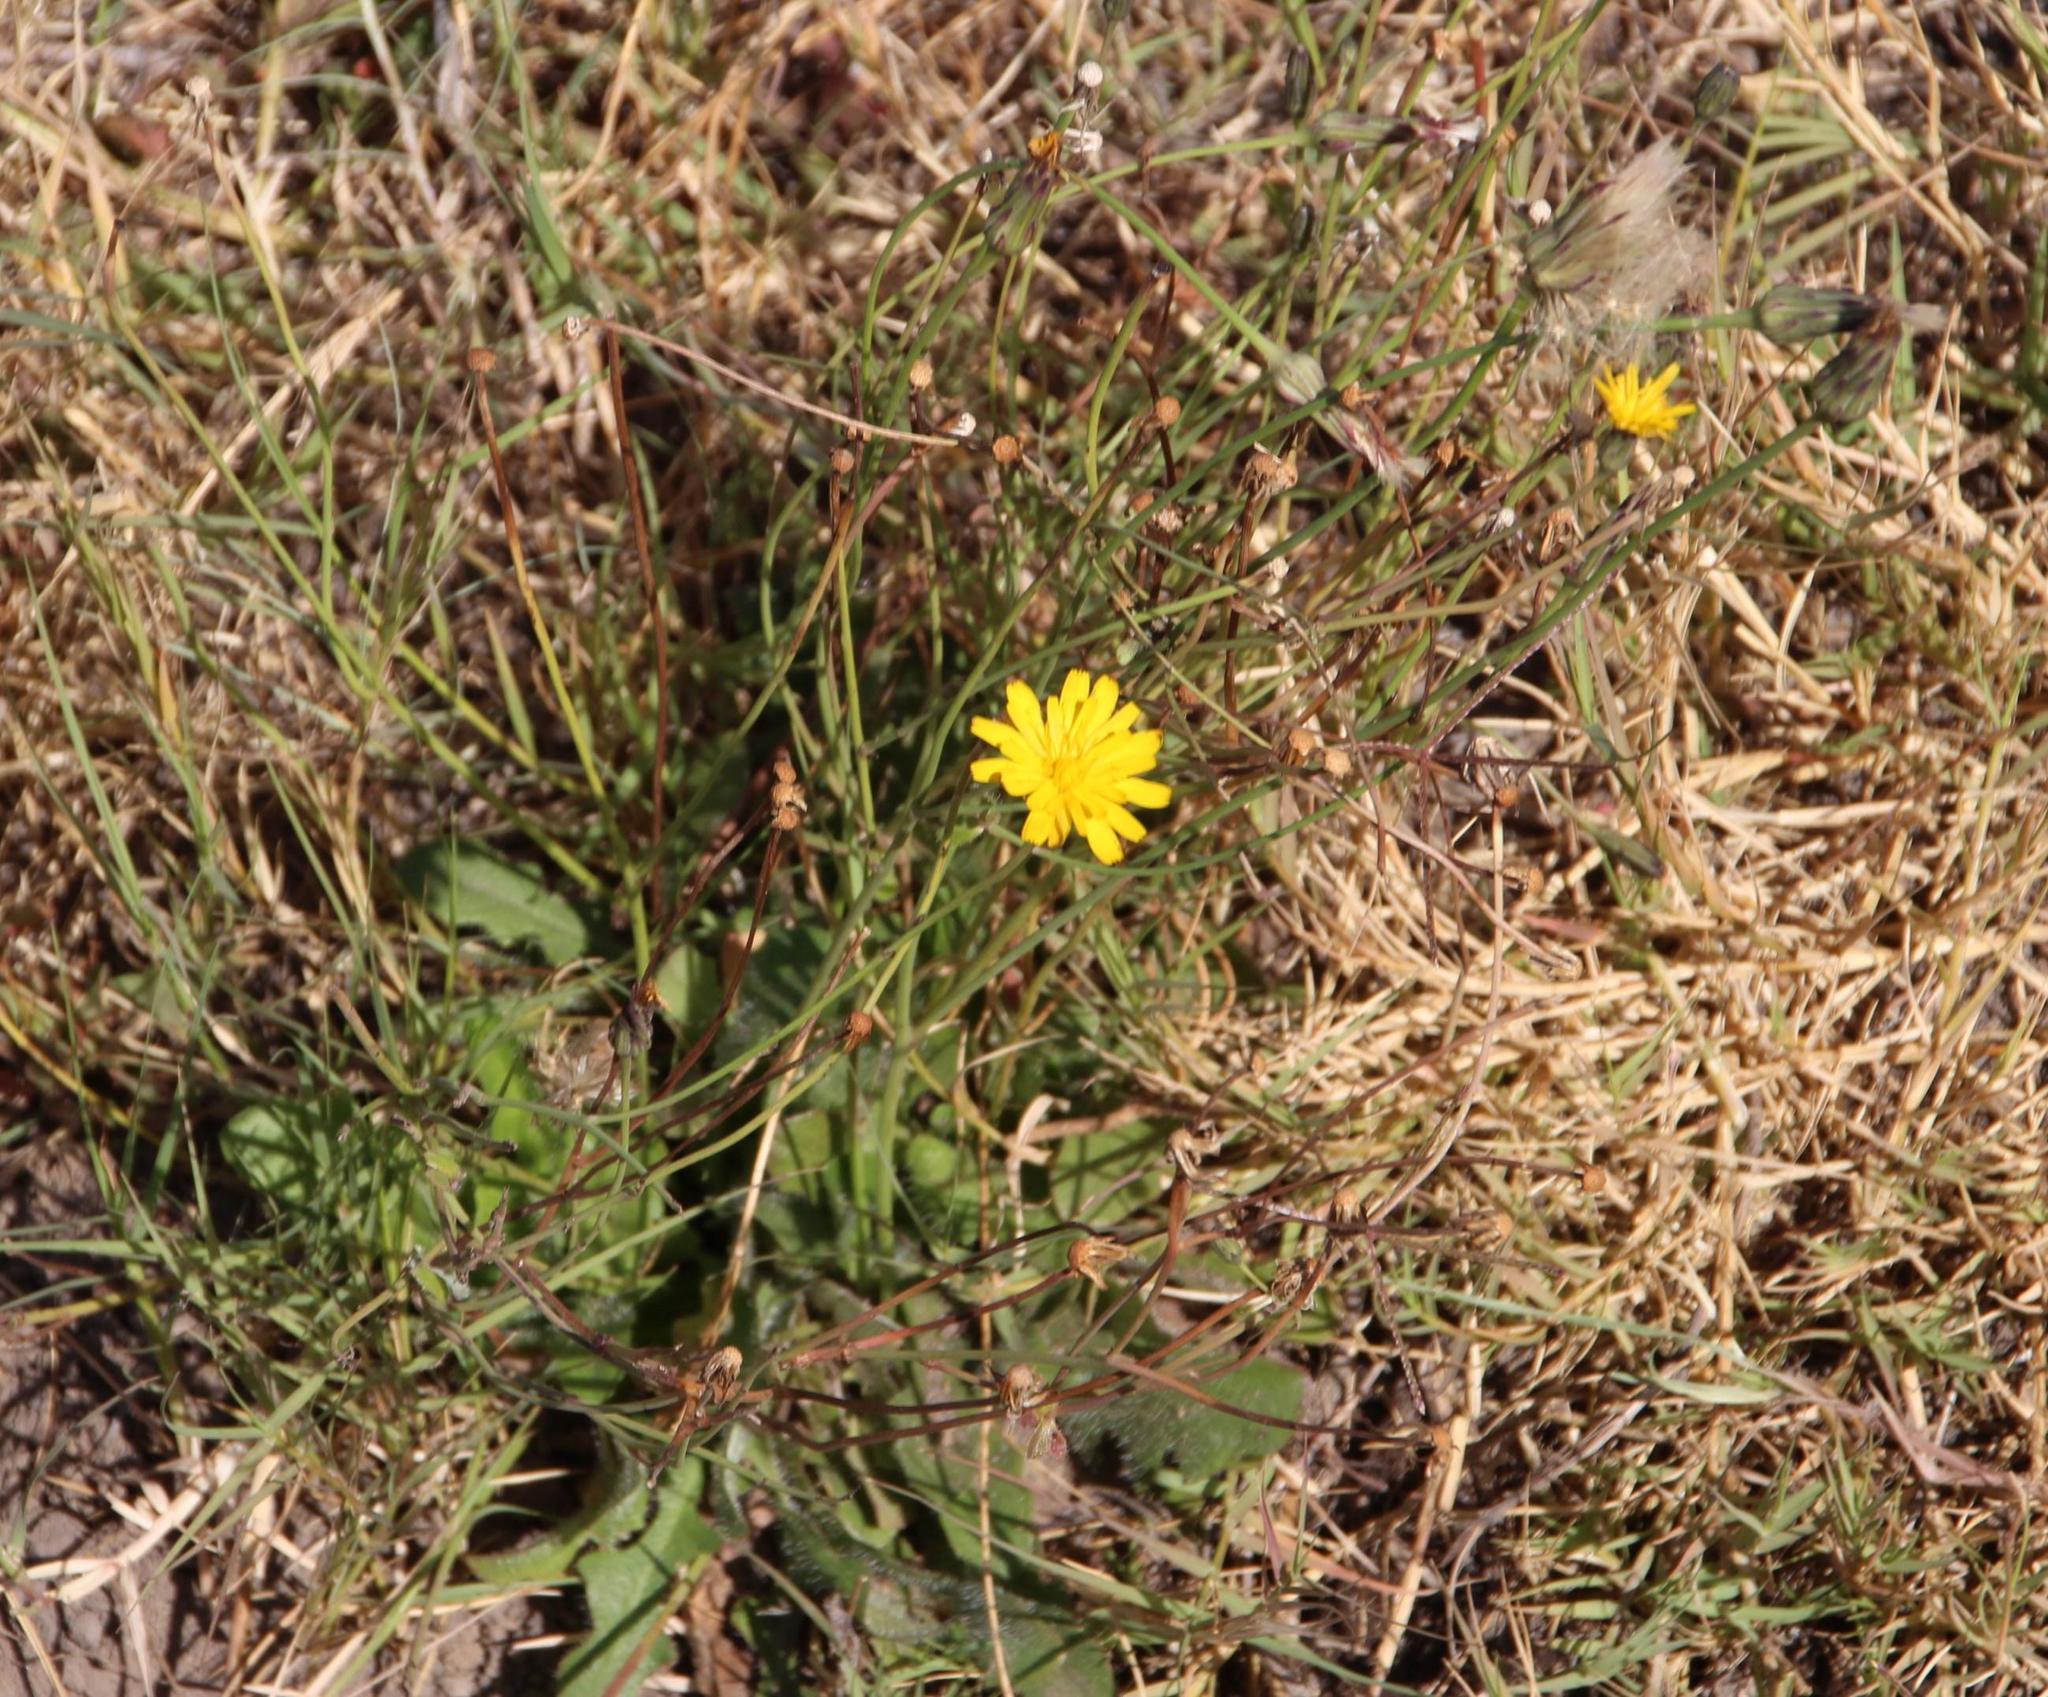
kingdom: Plantae
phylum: Tracheophyta
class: Magnoliopsida
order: Asterales
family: Asteraceae
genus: Hypochaeris
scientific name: Hypochaeris radicata
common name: Flatweed
